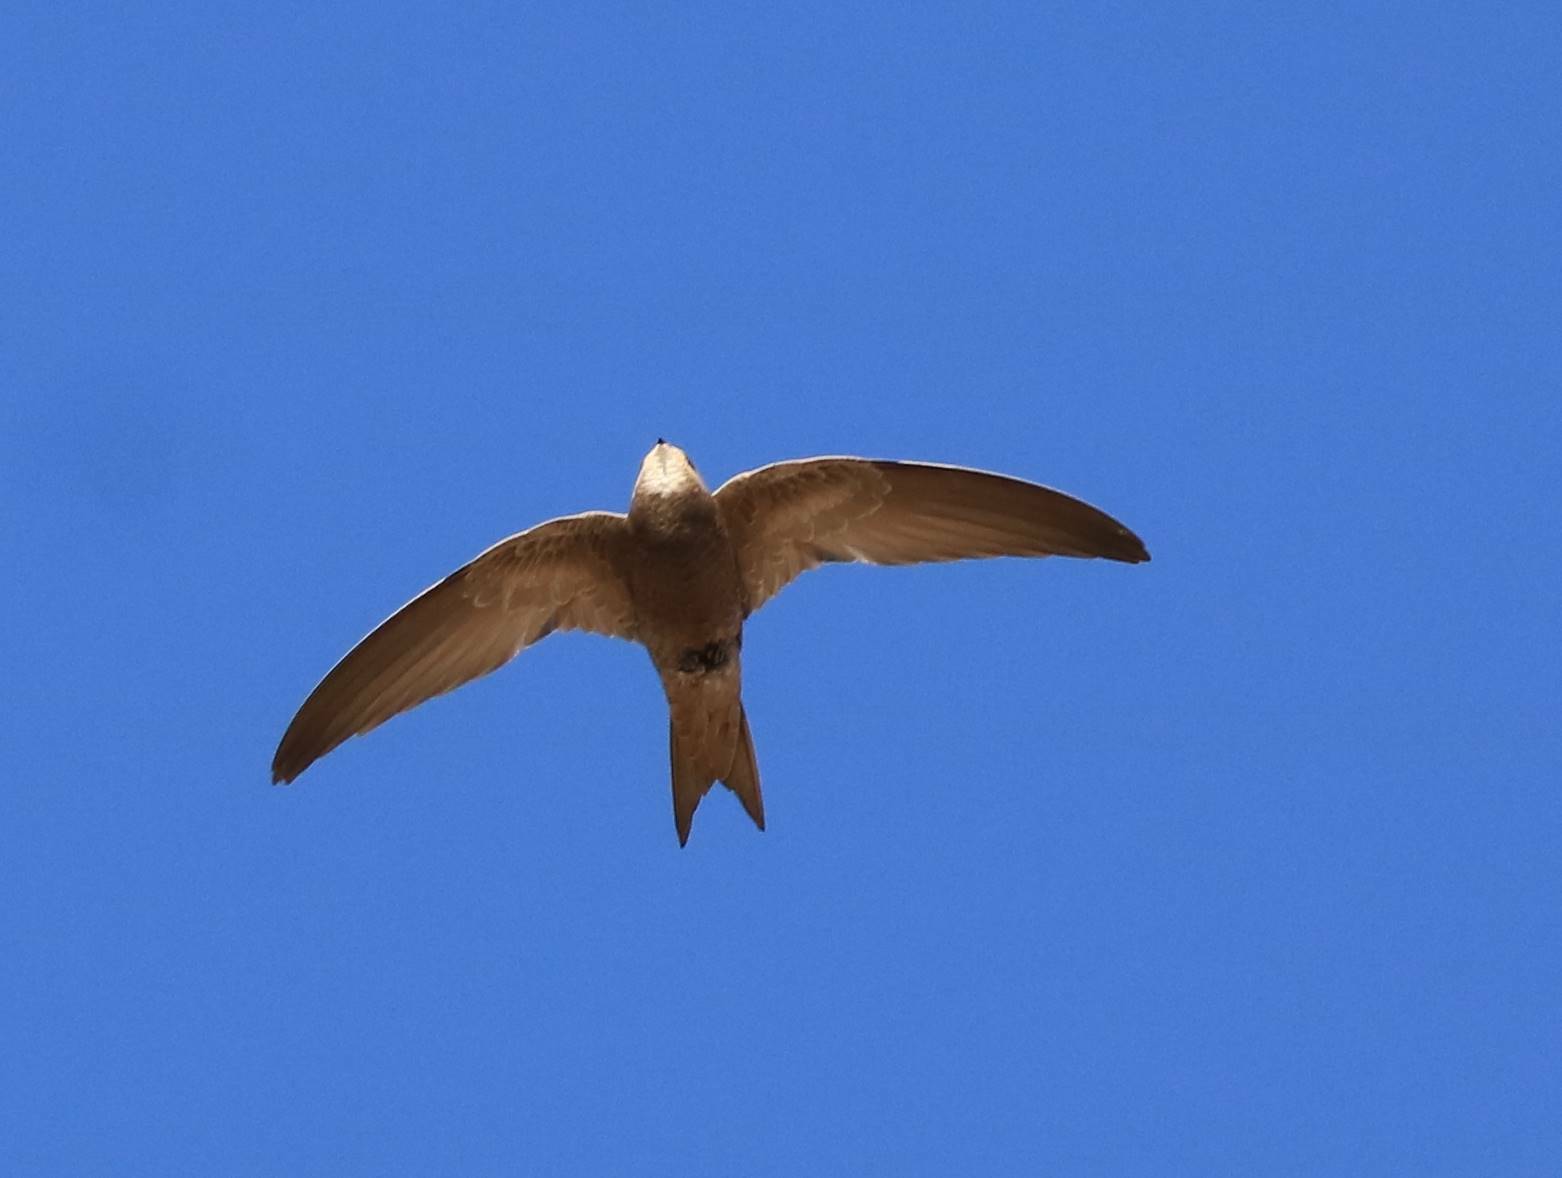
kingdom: Animalia
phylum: Chordata
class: Aves
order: Apodiformes
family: Apodidae
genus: Apus
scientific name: Apus pallidus
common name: Pallid swift
